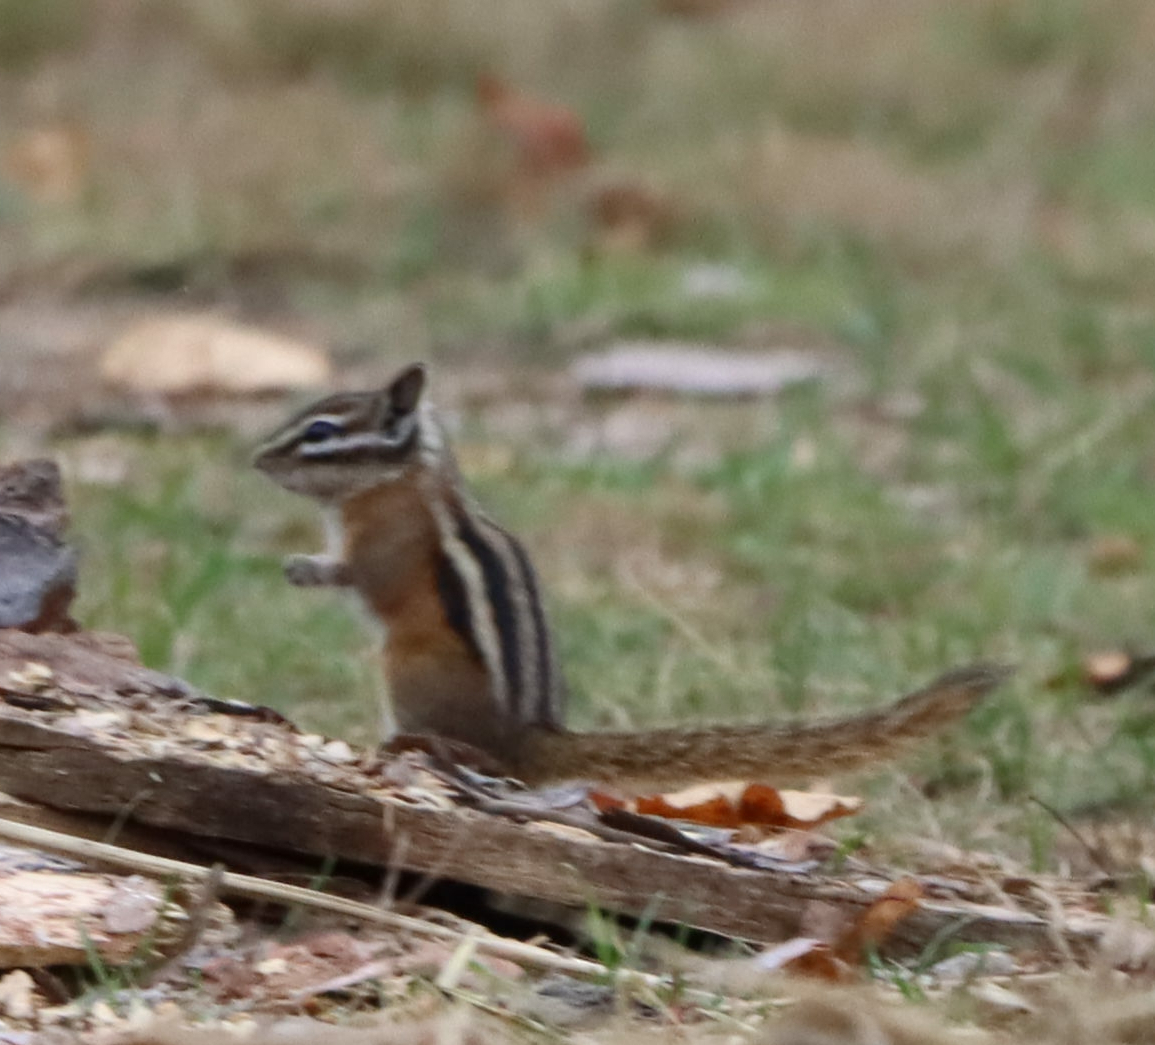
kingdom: Animalia
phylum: Chordata
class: Mammalia
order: Rodentia
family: Sciuridae
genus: Tamias
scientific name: Tamias minimus
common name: Least chipmunk
